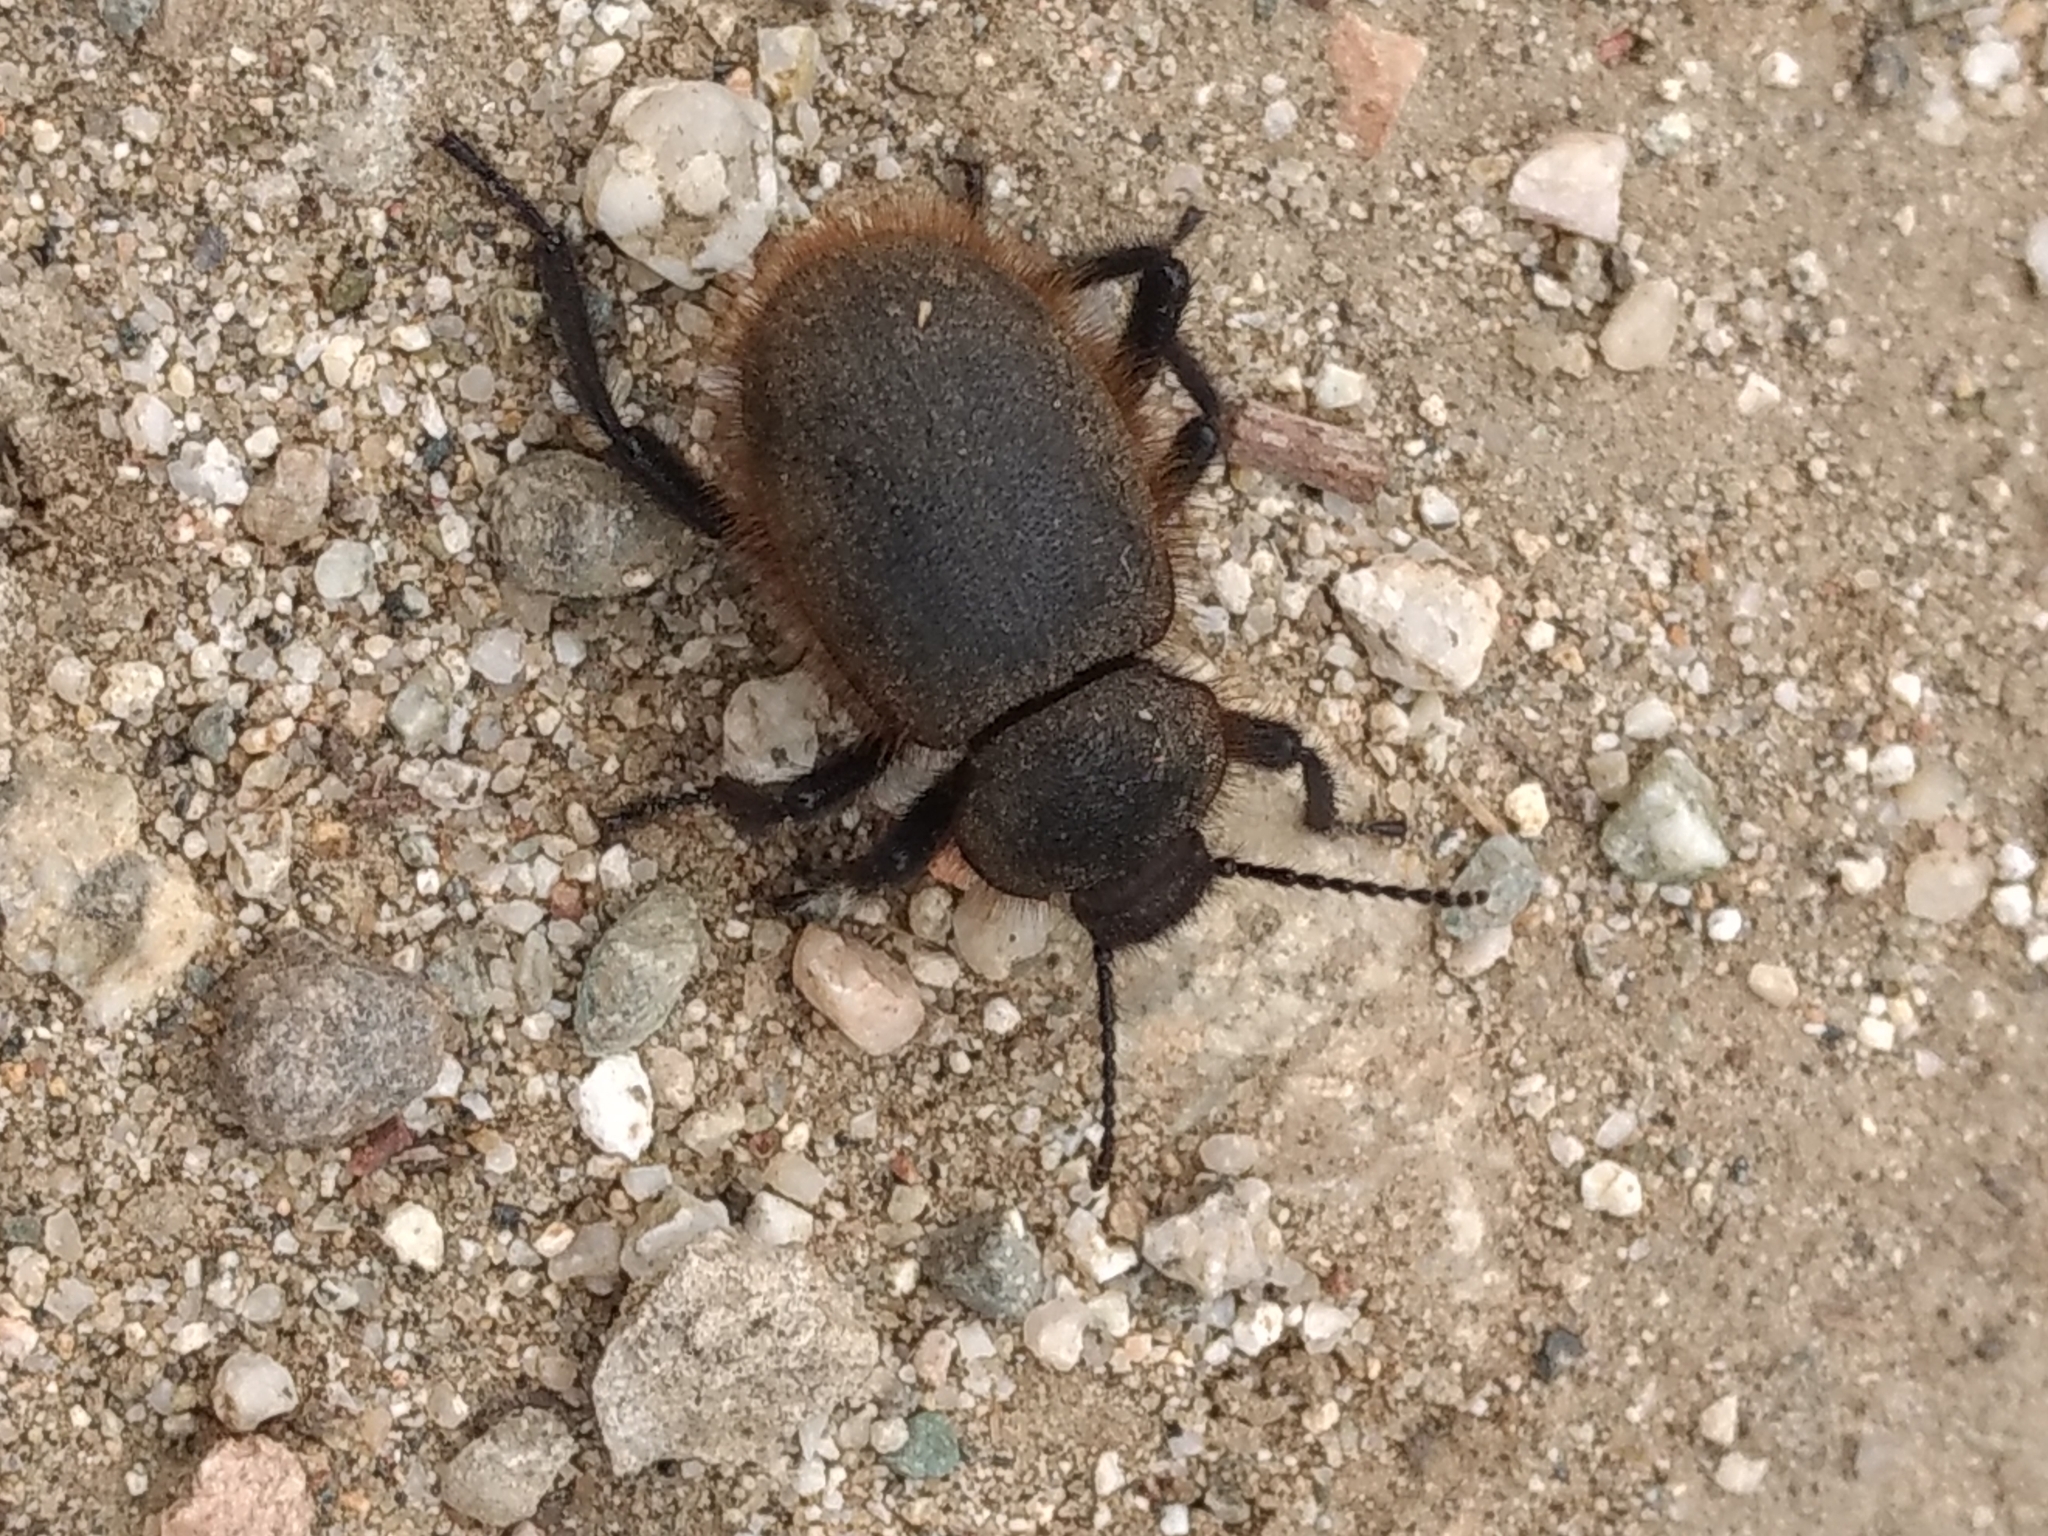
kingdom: Animalia
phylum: Arthropoda
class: Insecta
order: Coleoptera
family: Tenebrionidae
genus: Eleodes
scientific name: Eleodes osculans
